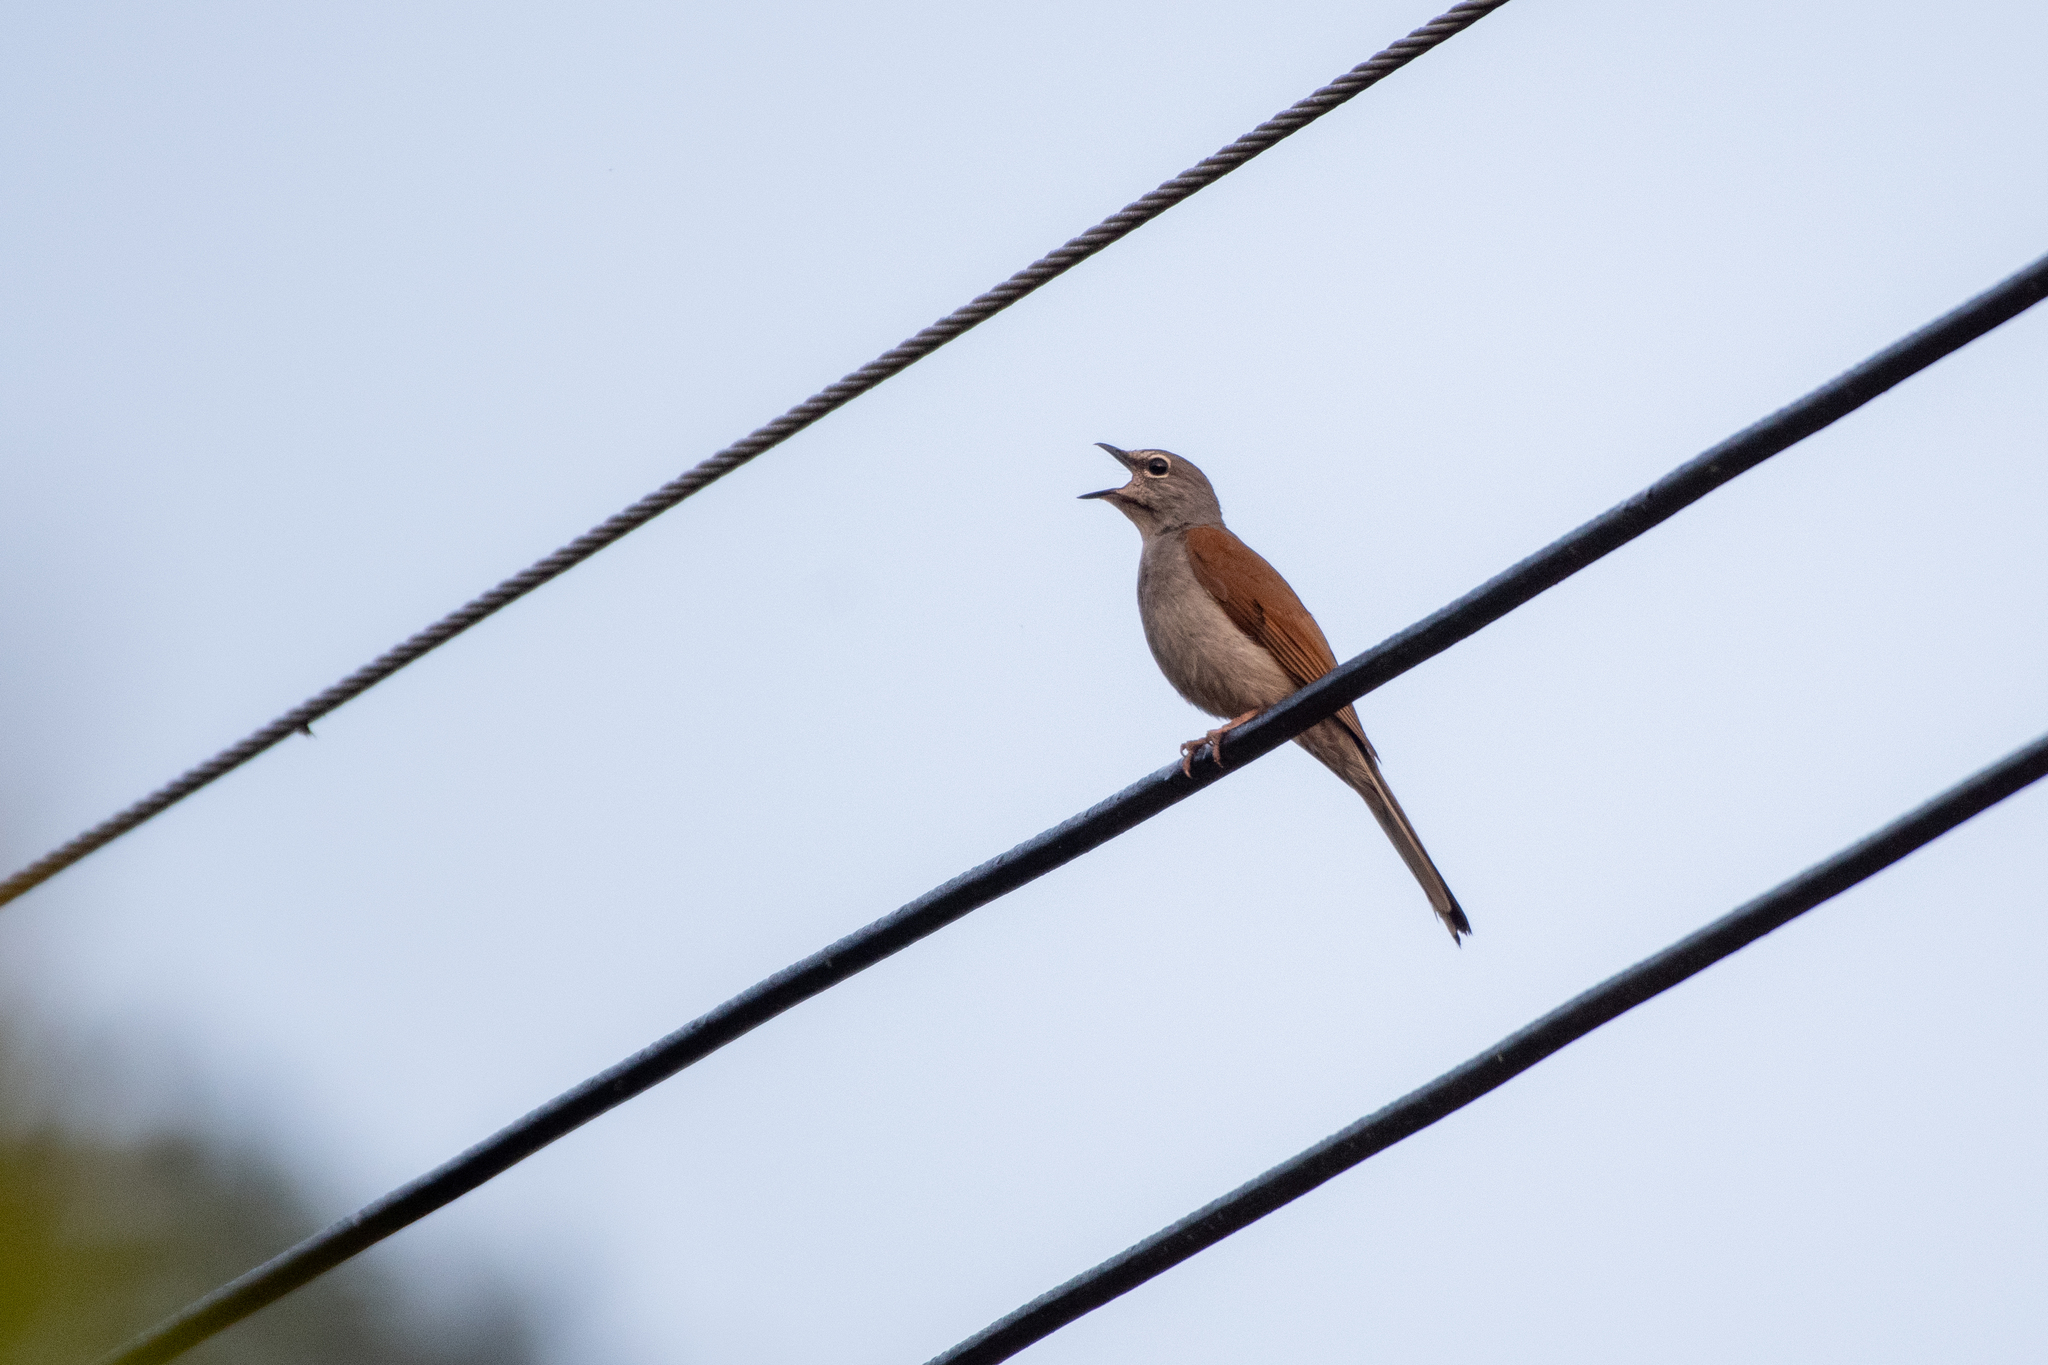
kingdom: Animalia
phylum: Chordata
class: Aves
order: Passeriformes
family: Turdidae
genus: Myadestes
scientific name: Myadestes occidentalis
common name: Brown-backed solitaire
